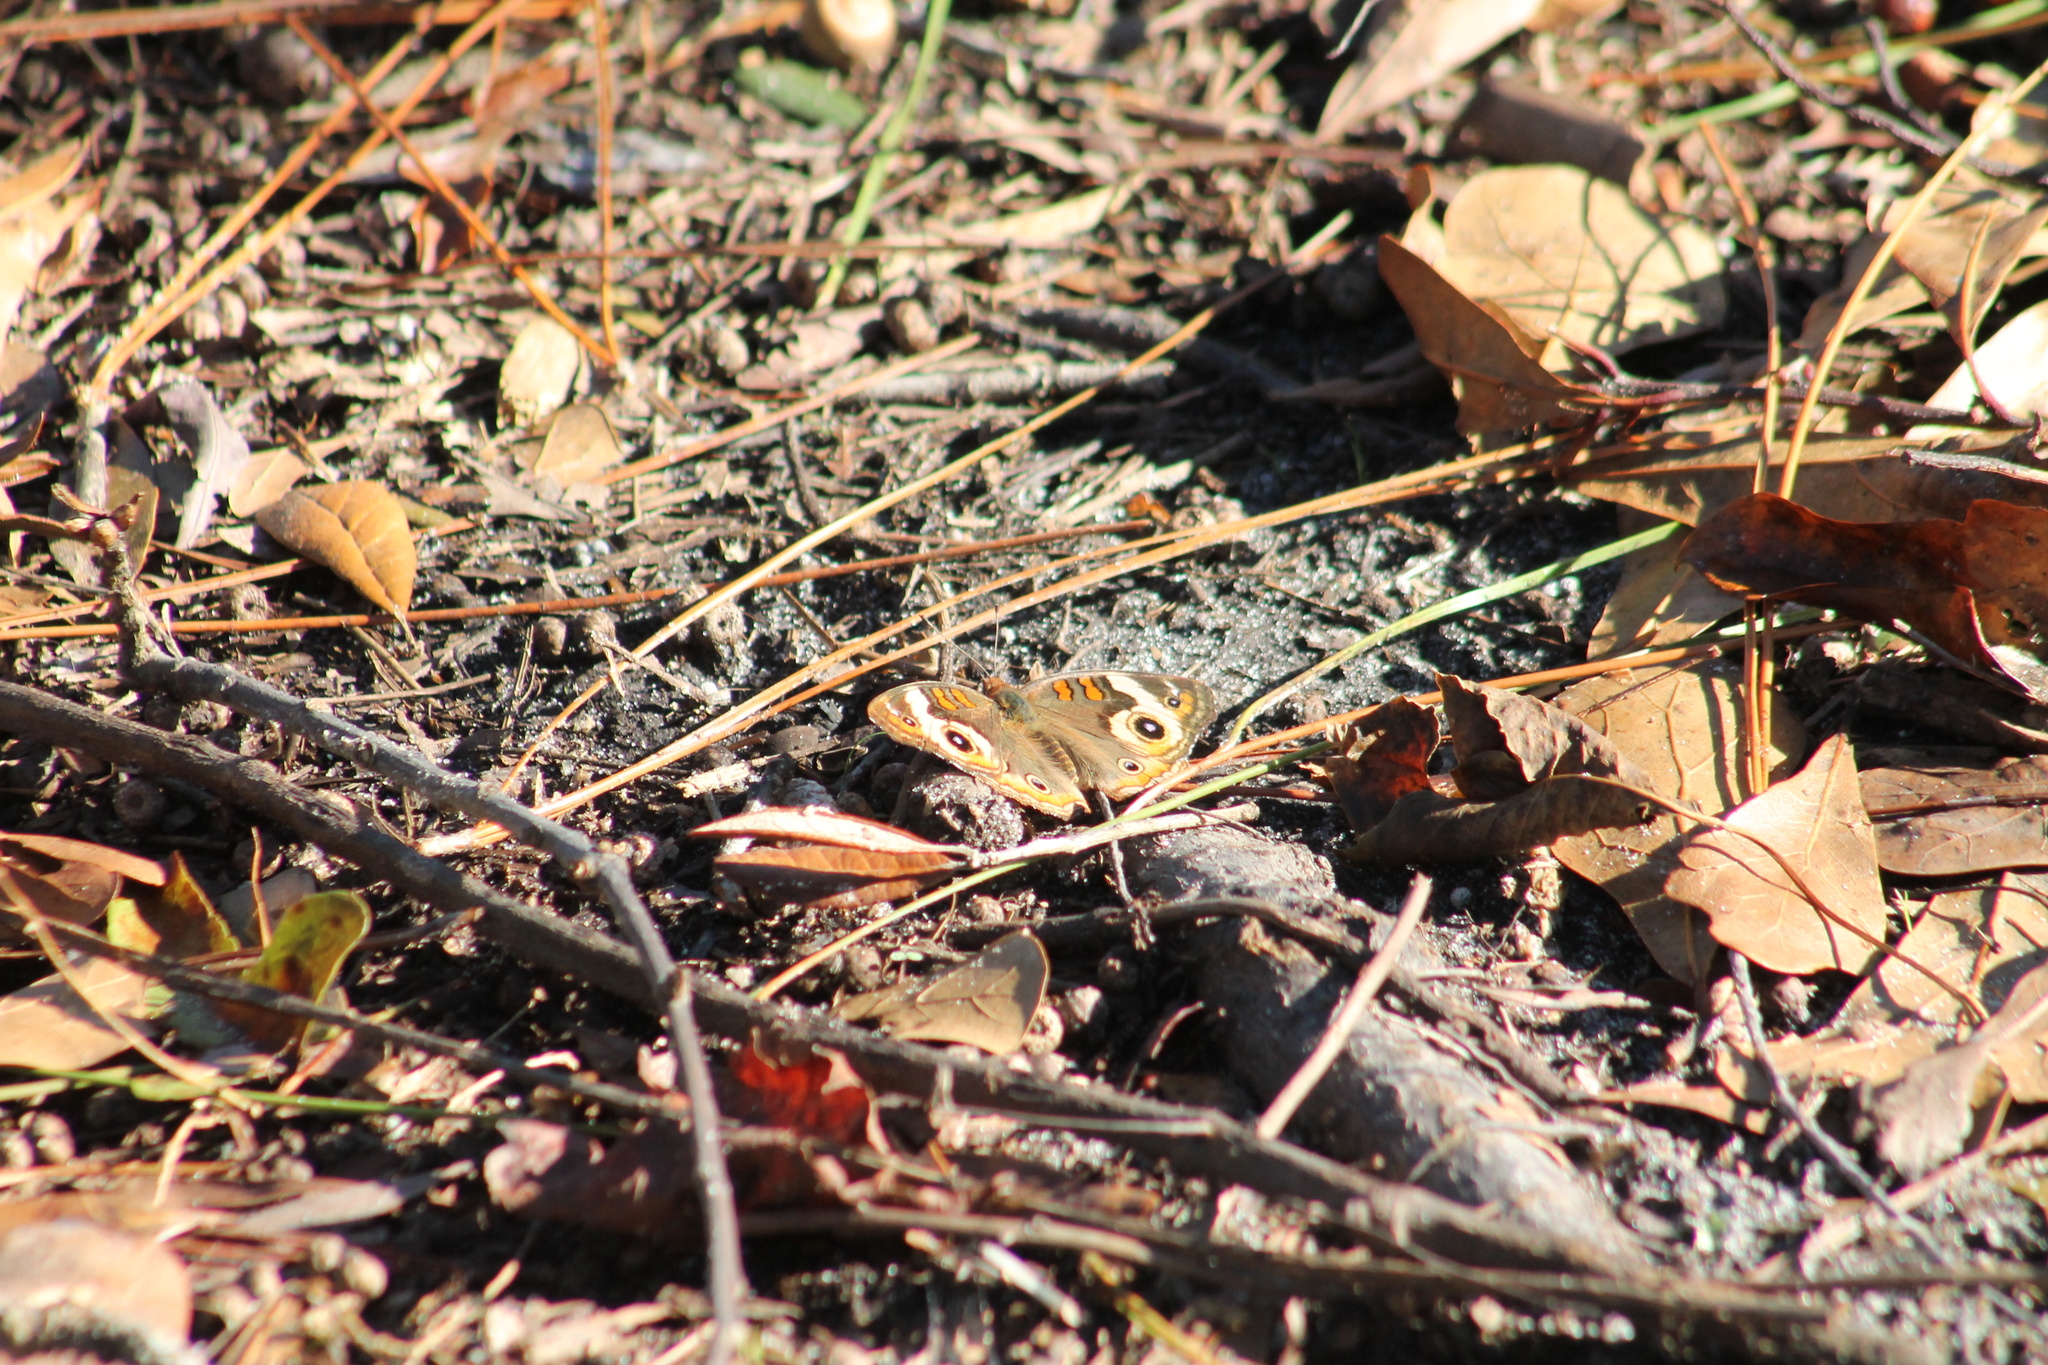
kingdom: Animalia
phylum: Arthropoda
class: Insecta
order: Lepidoptera
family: Nymphalidae
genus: Junonia
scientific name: Junonia coenia
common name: Common buckeye
